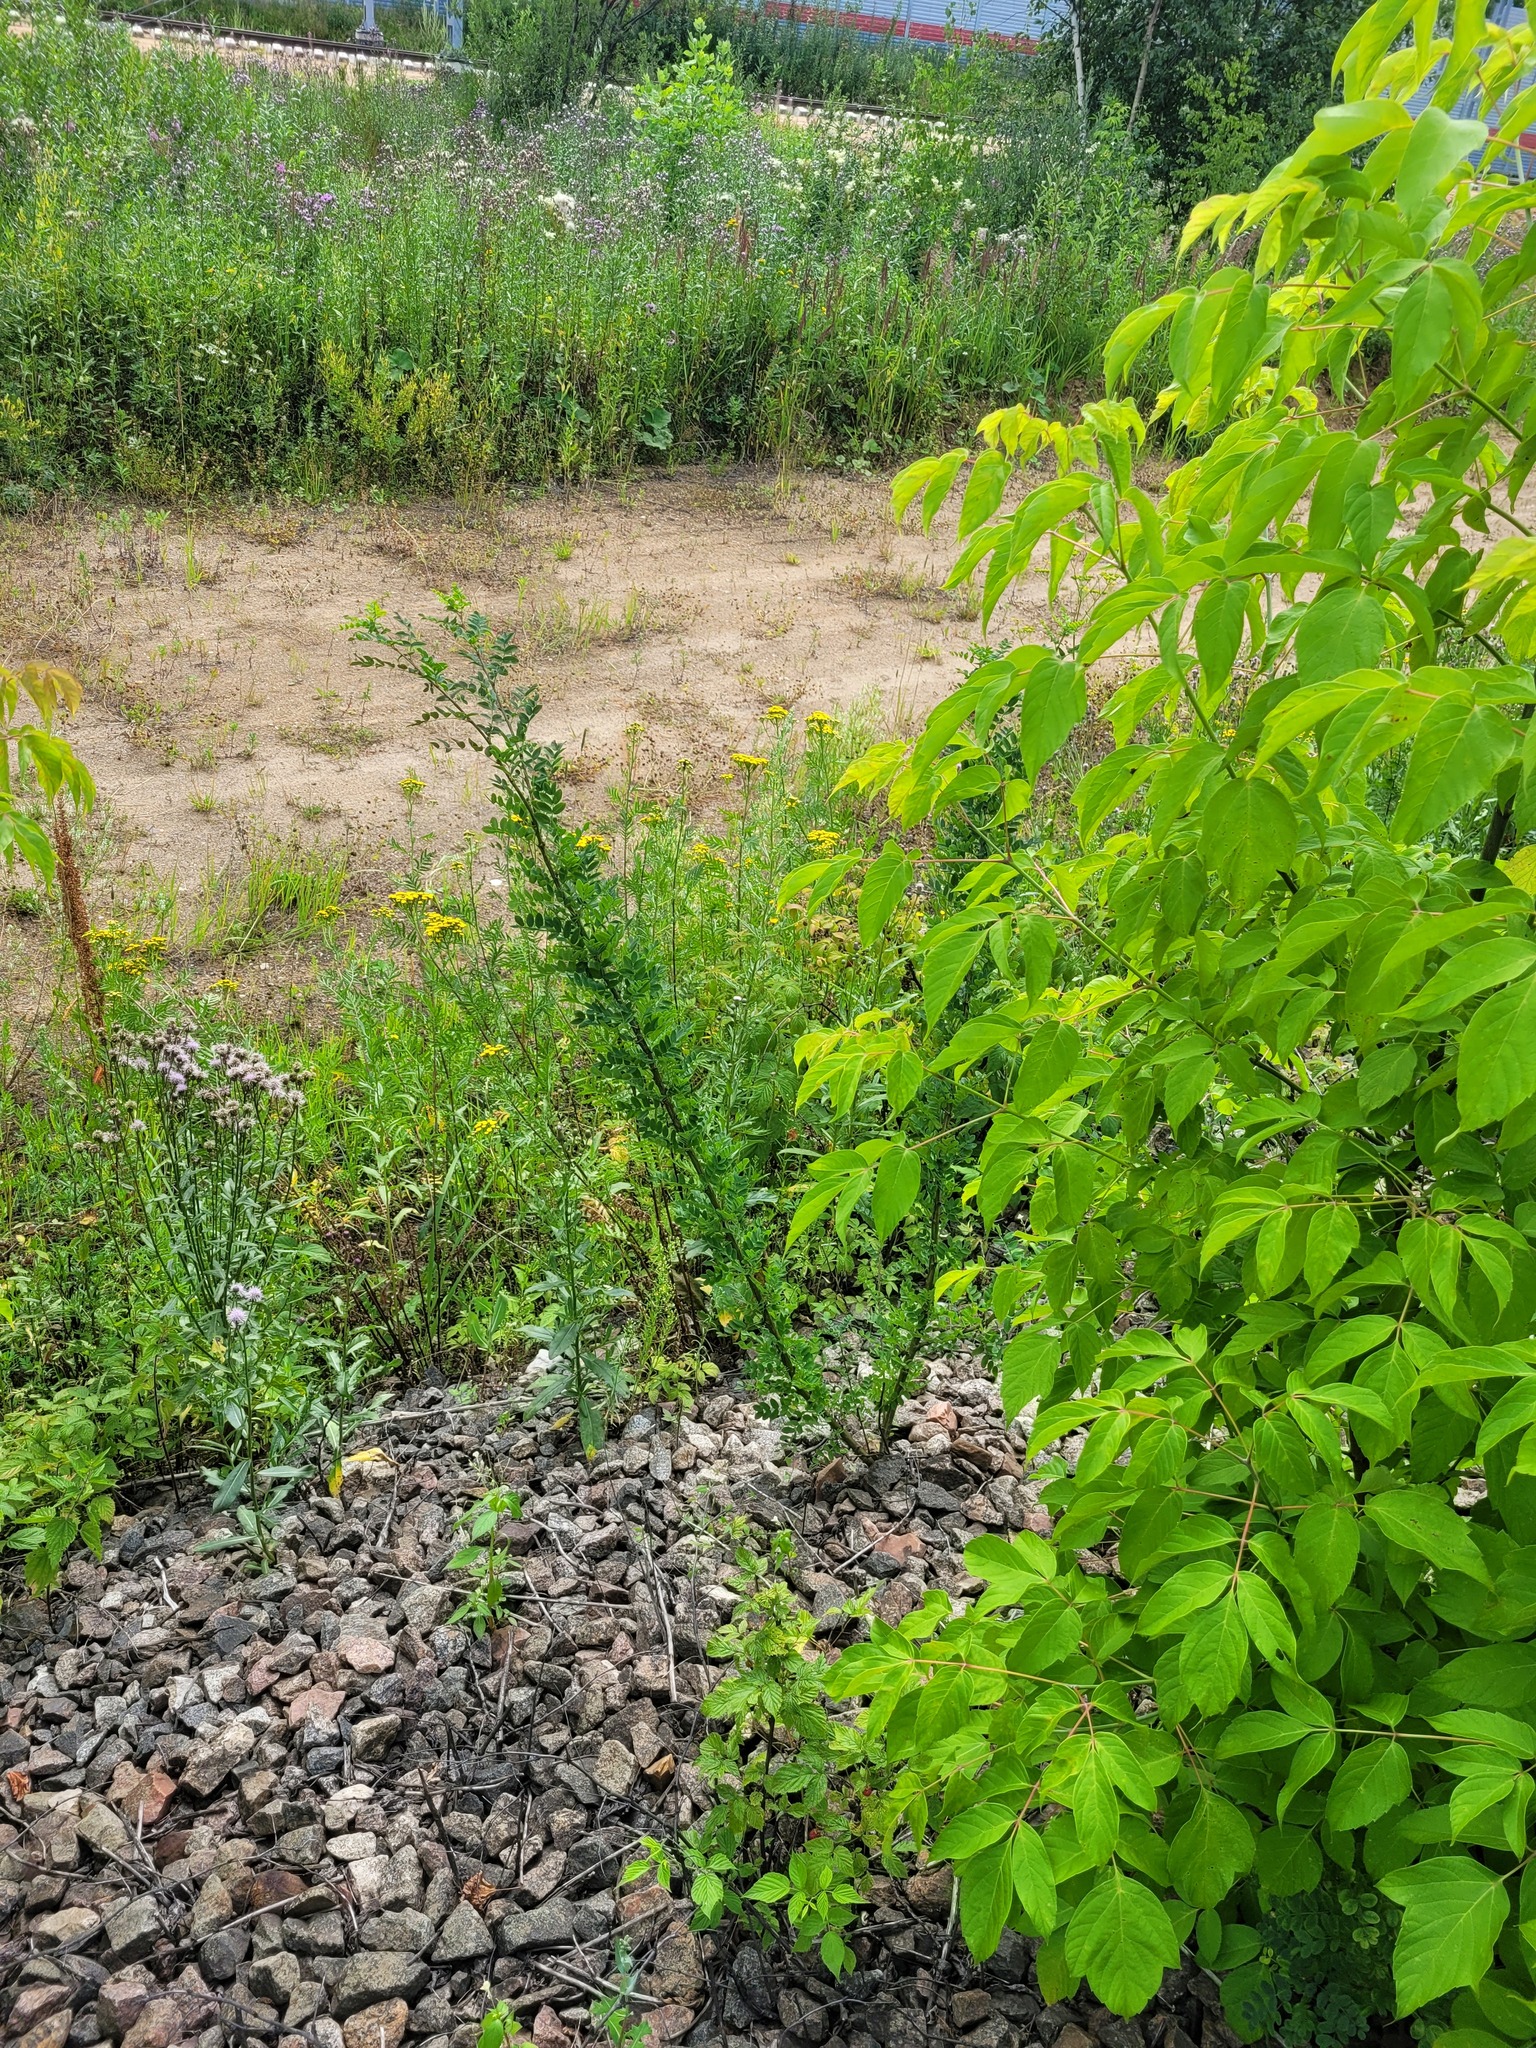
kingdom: Plantae
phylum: Tracheophyta
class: Magnoliopsida
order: Fabales
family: Fabaceae
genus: Caragana
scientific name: Caragana arborescens
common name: Siberian peashrub
